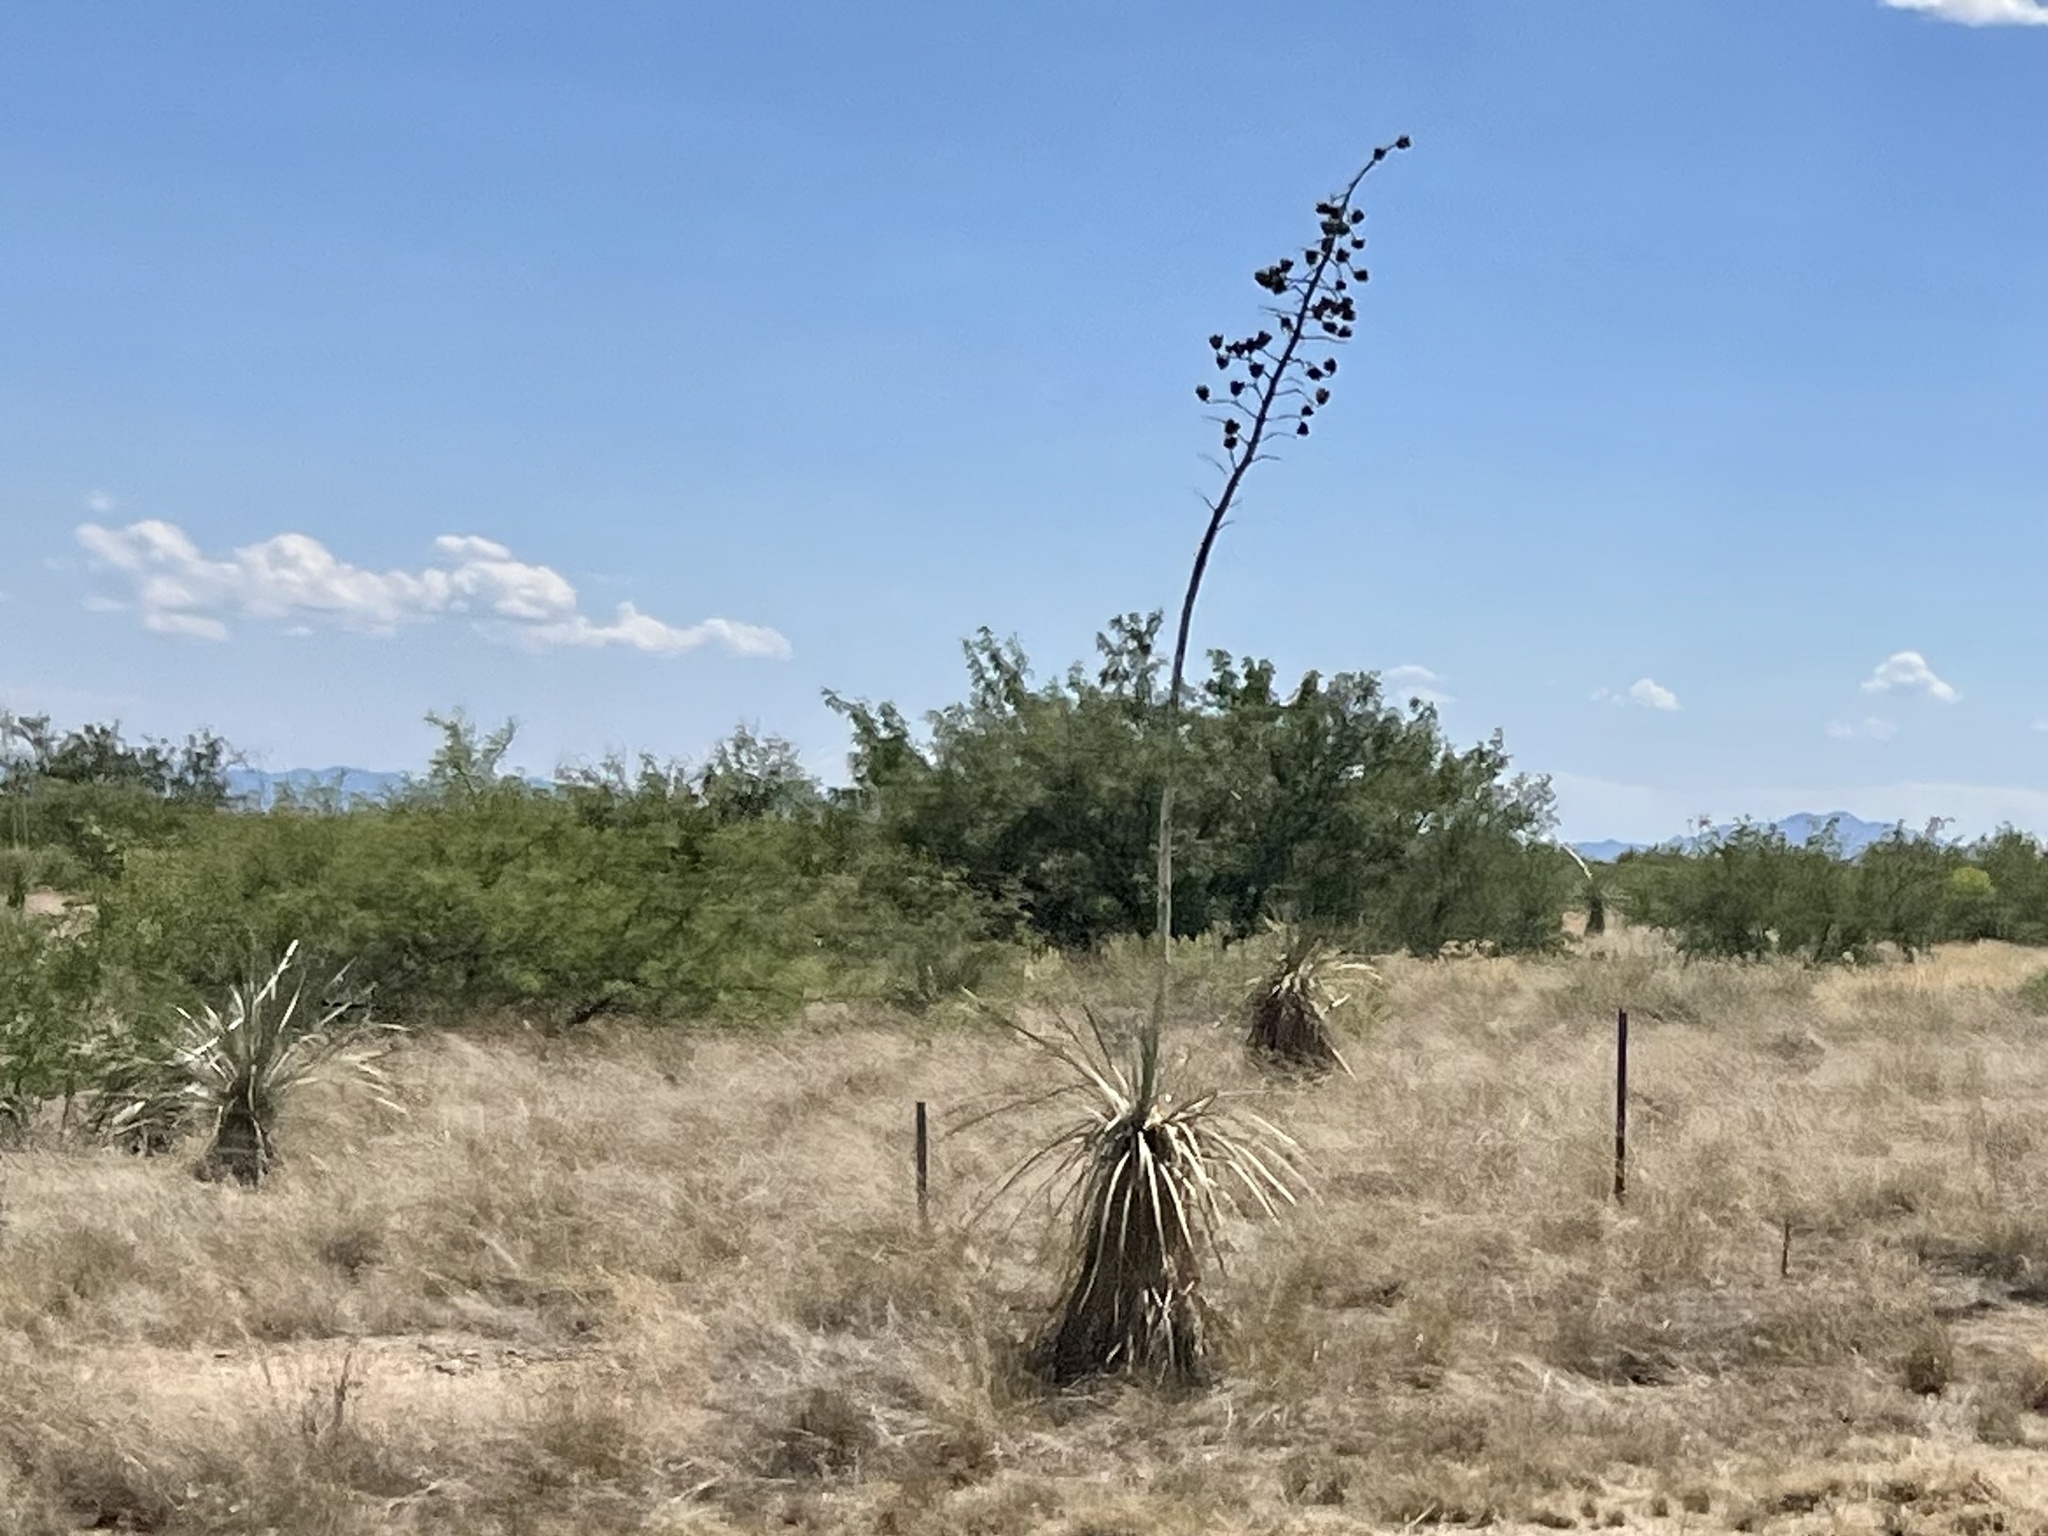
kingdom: Plantae
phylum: Tracheophyta
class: Liliopsida
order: Asparagales
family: Asparagaceae
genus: Yucca
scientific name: Yucca elata
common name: Palmella
